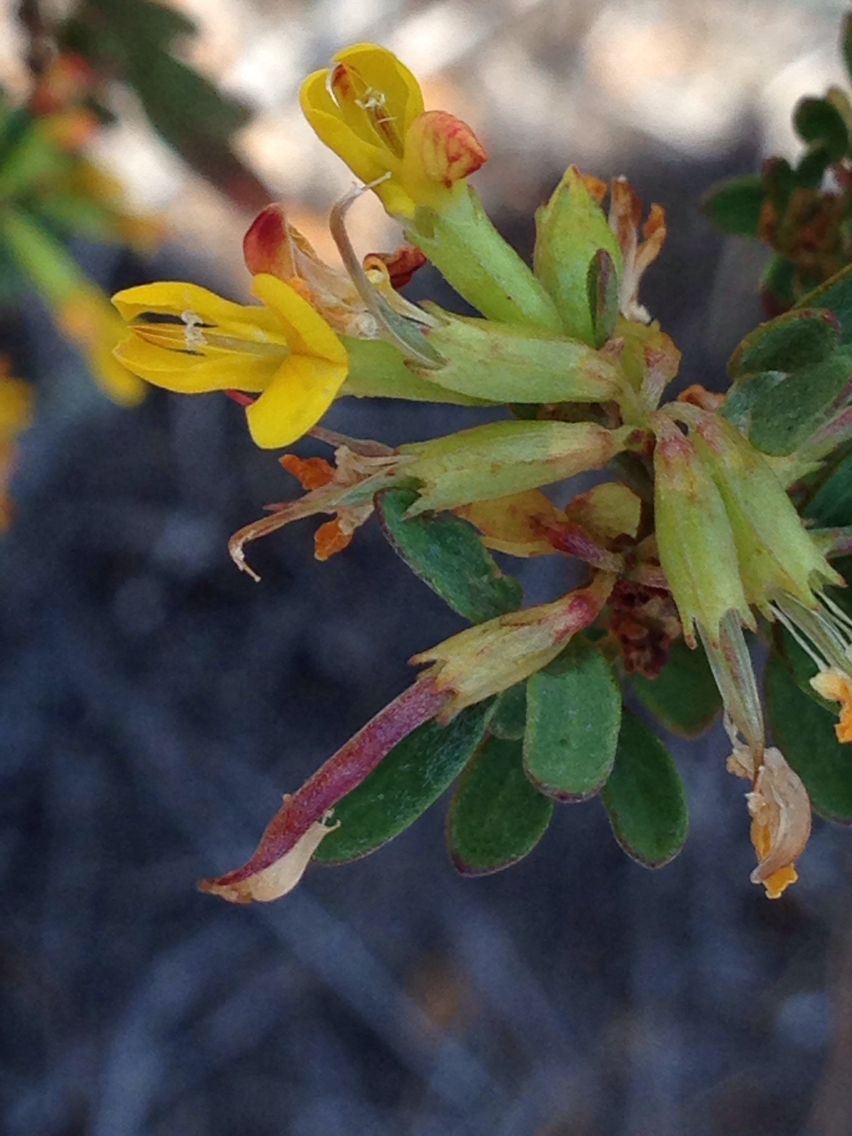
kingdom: Plantae
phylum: Tracheophyta
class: Magnoliopsida
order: Fabales
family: Fabaceae
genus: Acmispon
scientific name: Acmispon dendroideus
